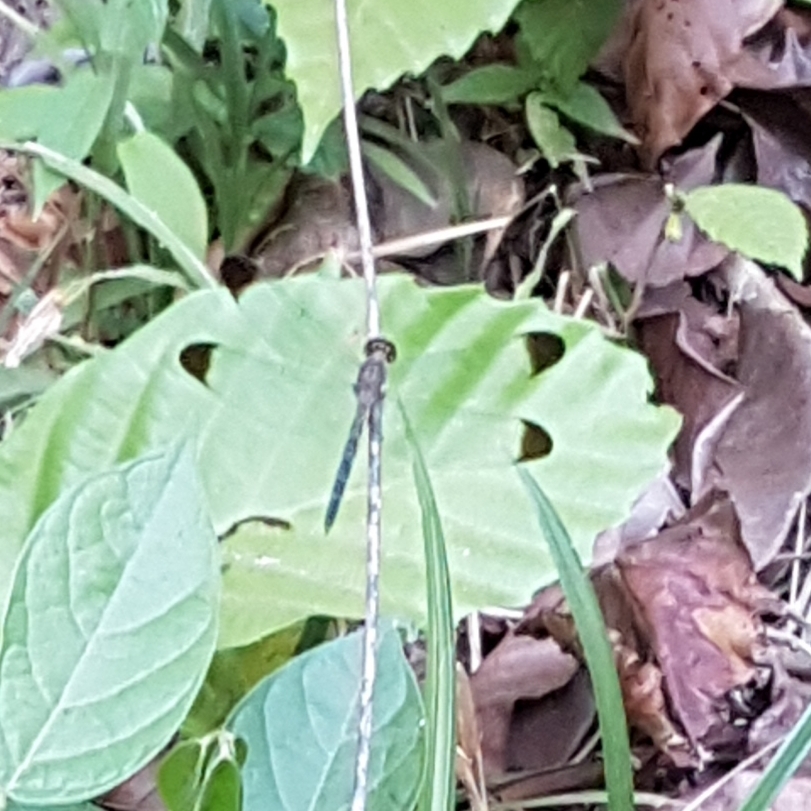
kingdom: Animalia
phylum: Arthropoda
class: Insecta
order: Odonata
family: Libellulidae
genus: Uracis
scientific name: Uracis imbuta
